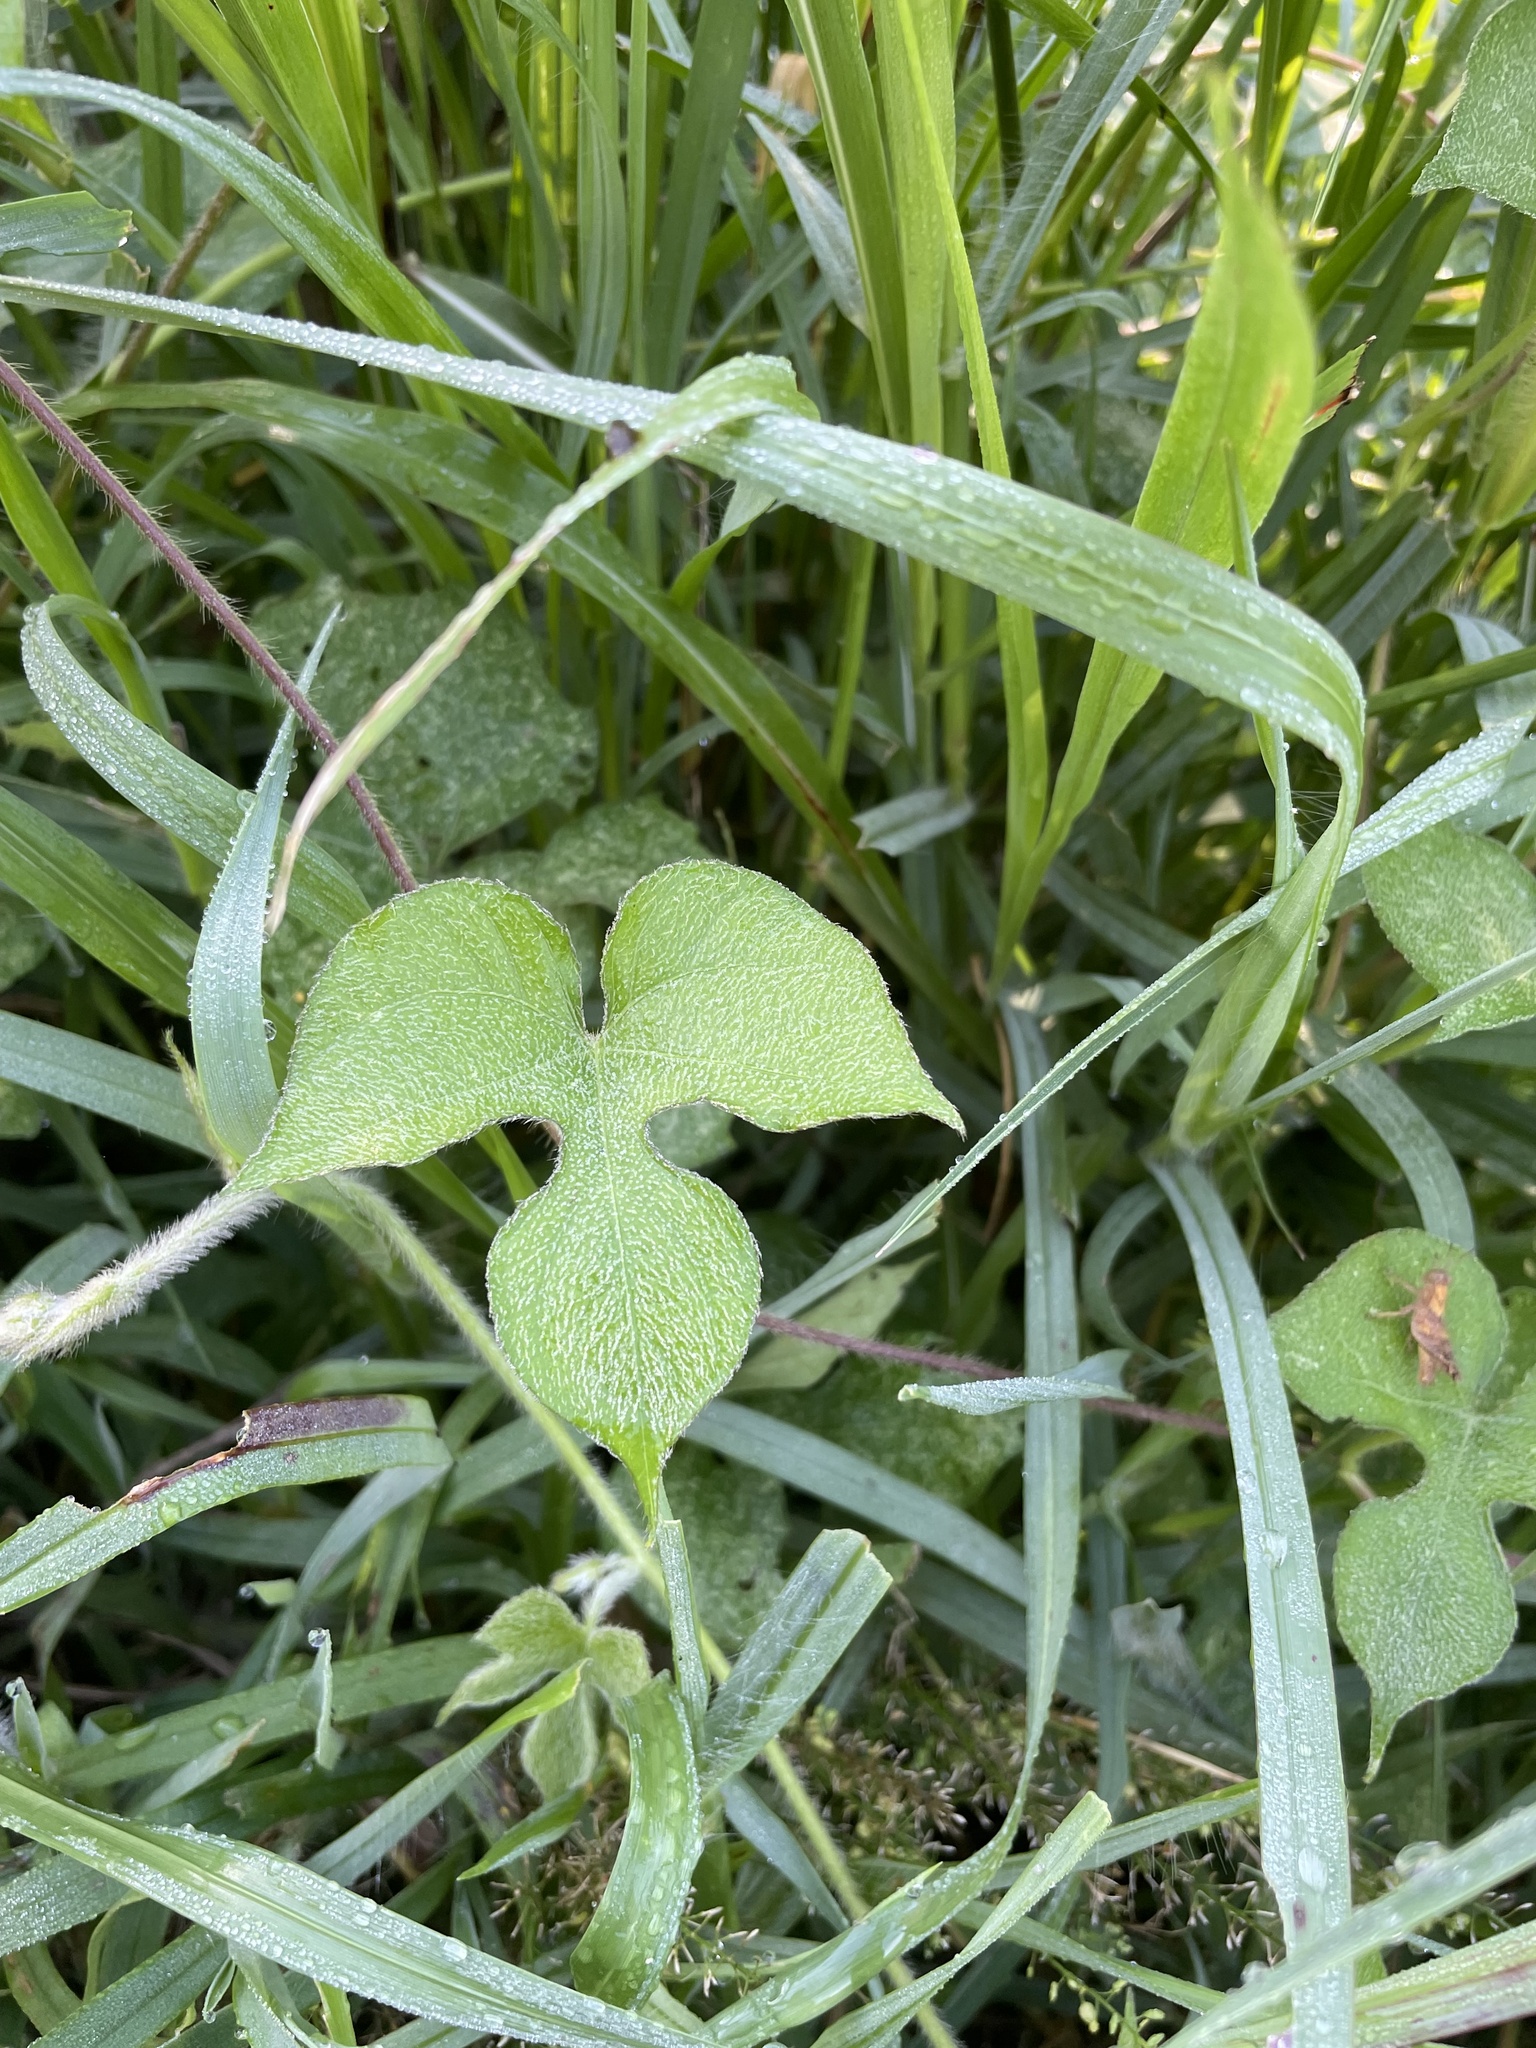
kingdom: Plantae
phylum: Tracheophyta
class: Magnoliopsida
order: Solanales
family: Convolvulaceae
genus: Ipomoea
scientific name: Ipomoea hederacea
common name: Ivy-leaved morning-glory
